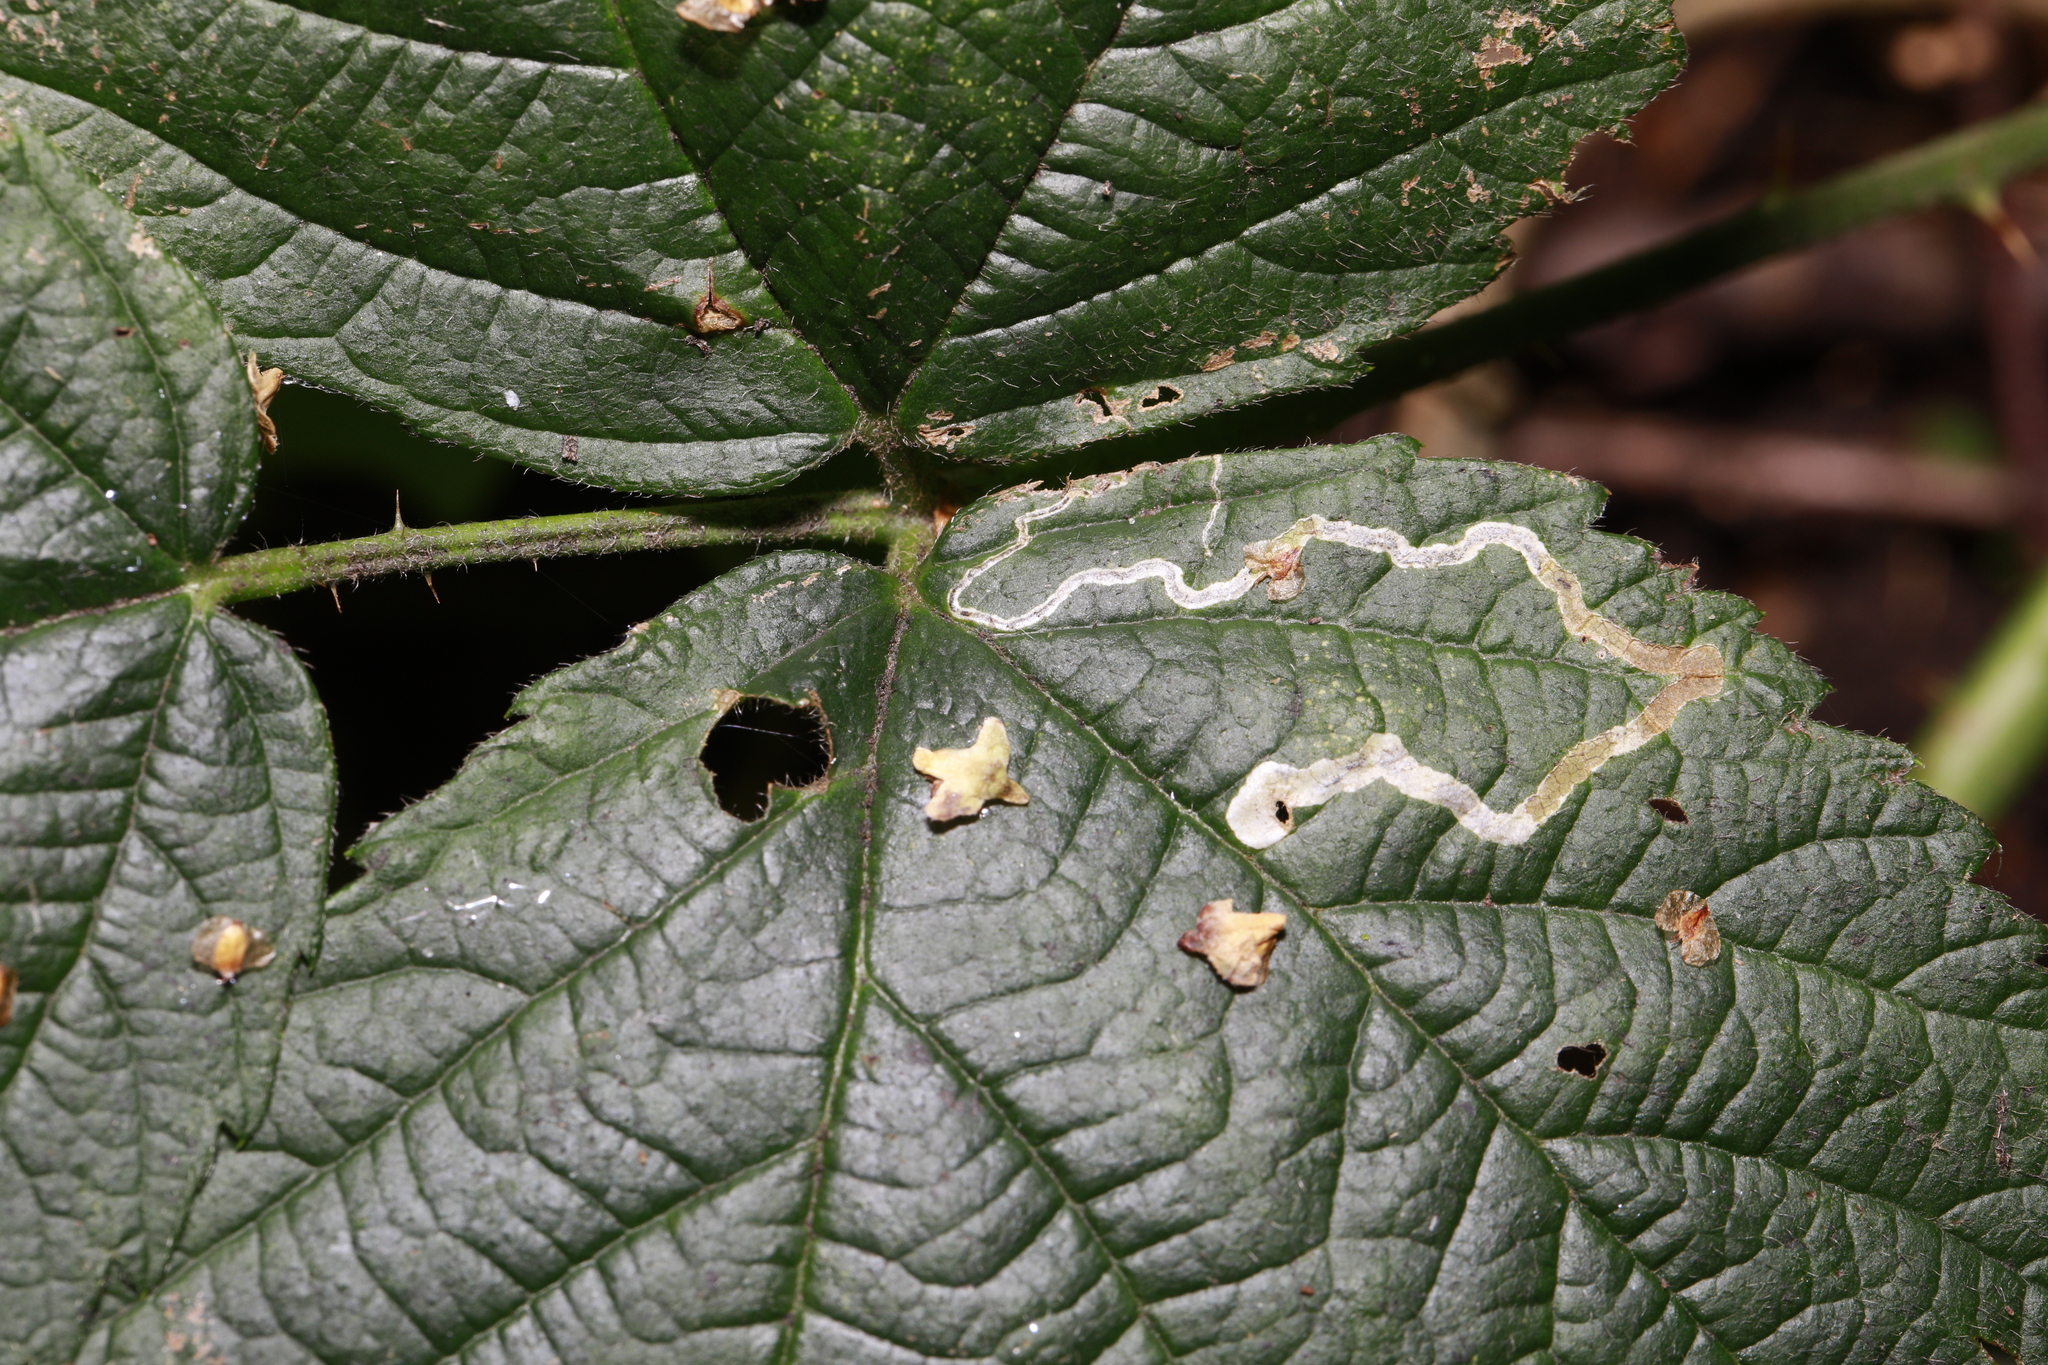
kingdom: Animalia
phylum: Arthropoda
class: Insecta
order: Lepidoptera
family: Nepticulidae
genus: Stigmella
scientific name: Stigmella aurella
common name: Golden pigmy
